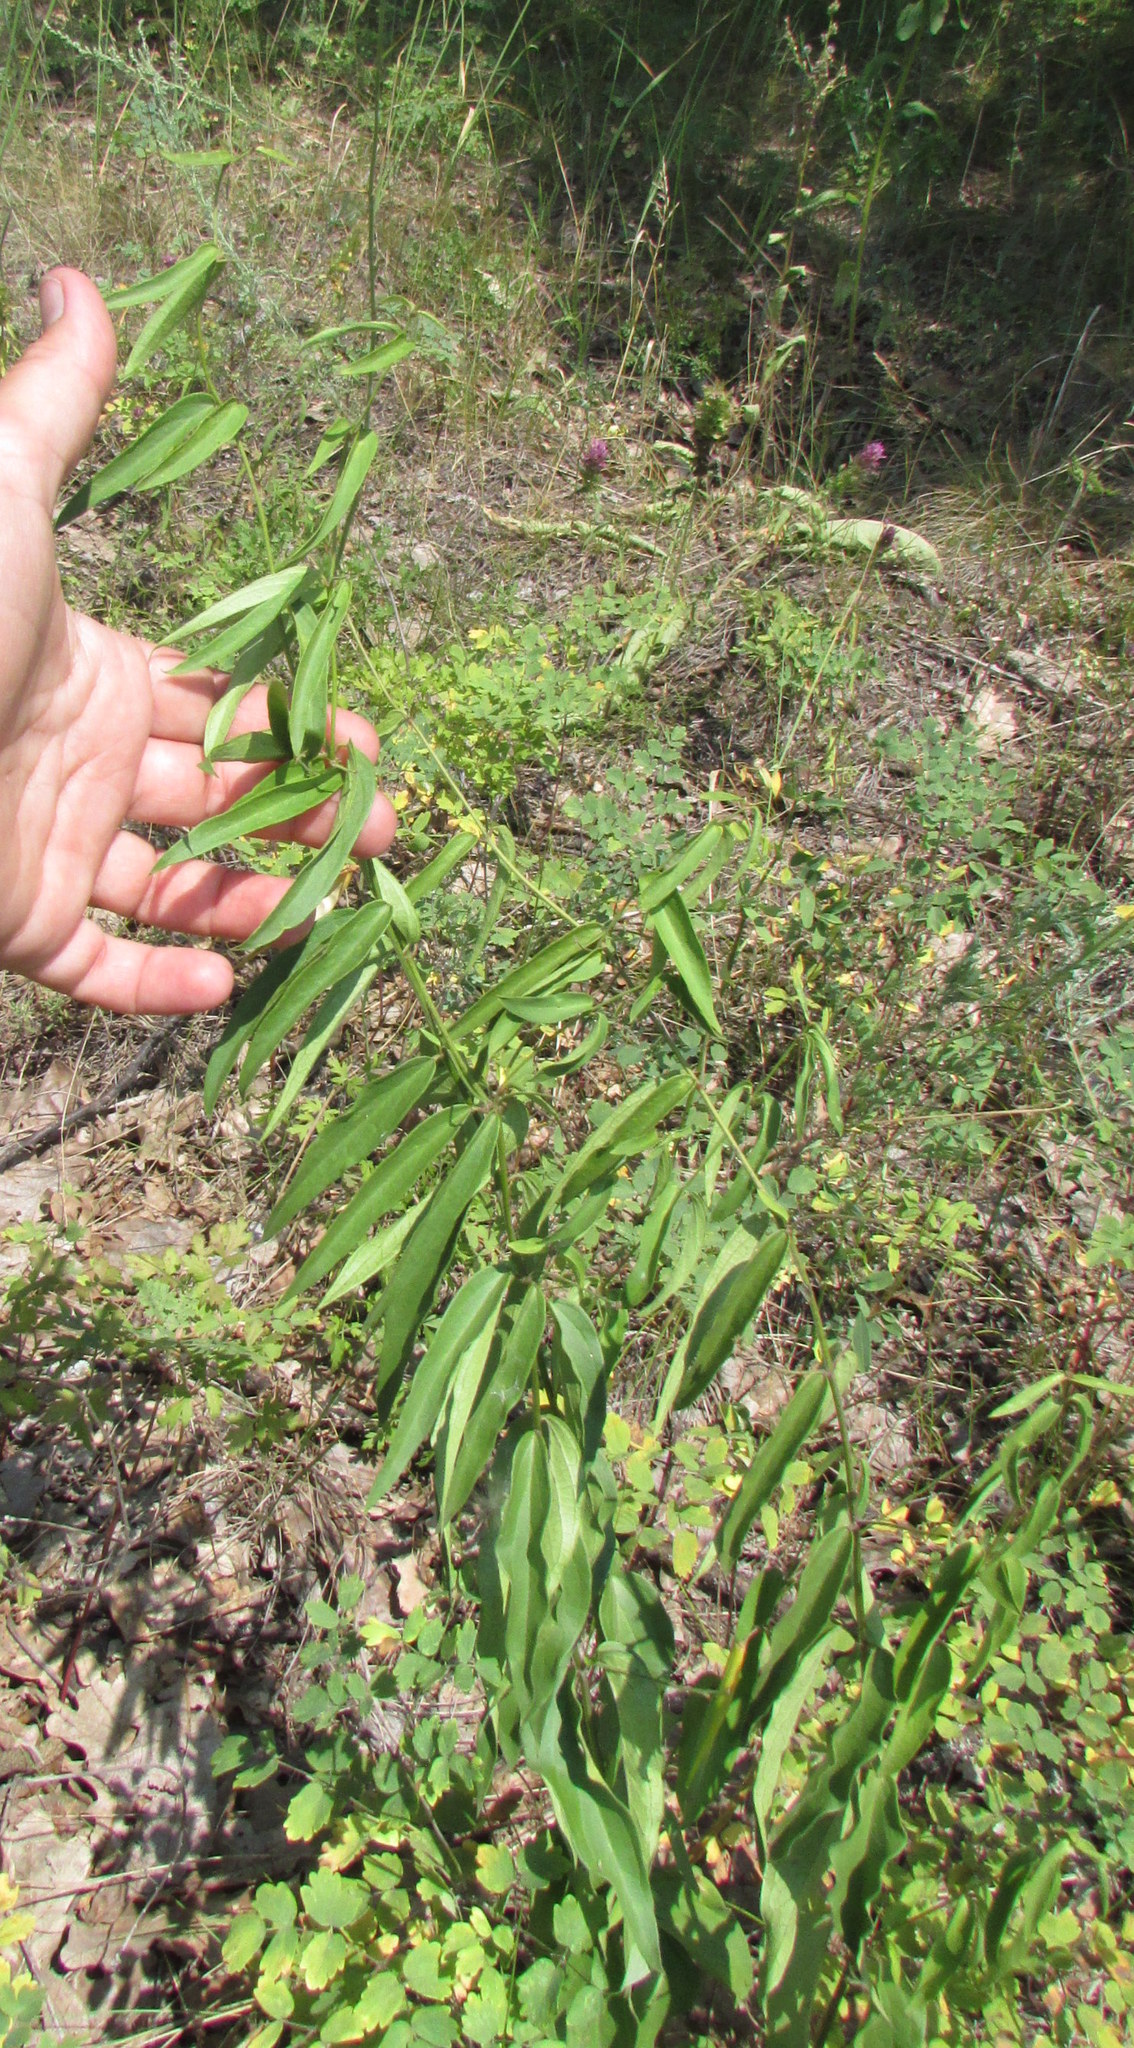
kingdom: Plantae
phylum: Tracheophyta
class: Magnoliopsida
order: Gentianales
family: Apocynaceae
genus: Vincetoxicum
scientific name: Vincetoxicum hirundinaria
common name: White swallowwort
